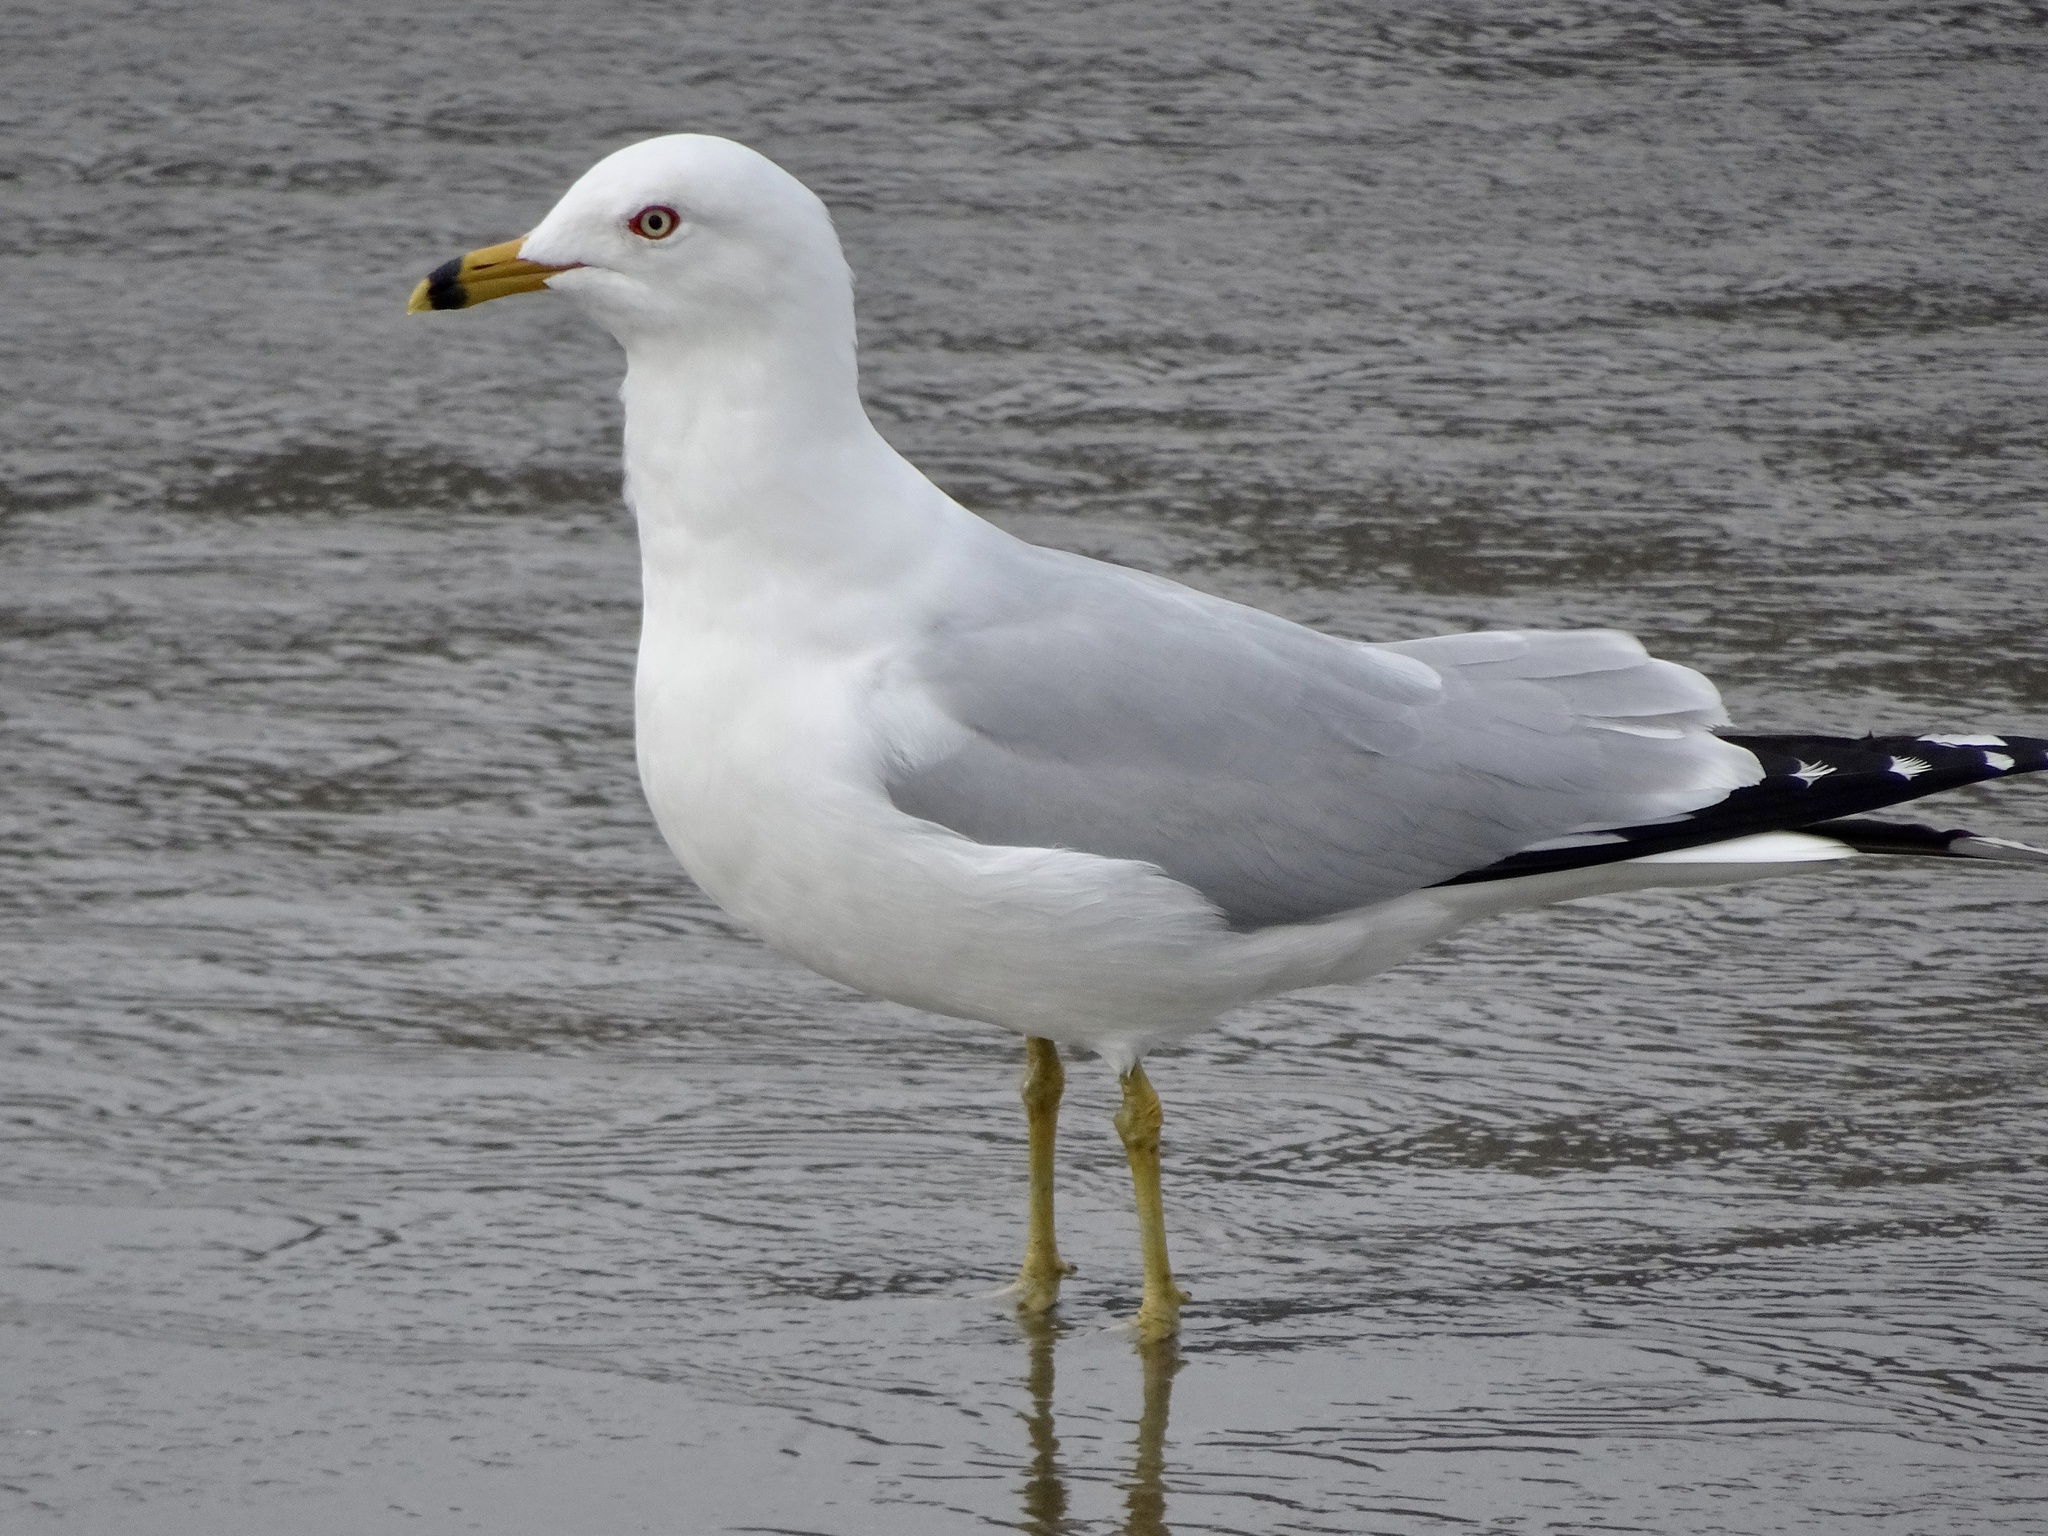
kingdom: Animalia
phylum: Chordata
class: Aves
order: Charadriiformes
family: Laridae
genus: Larus
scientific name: Larus delawarensis
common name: Ring-billed gull
